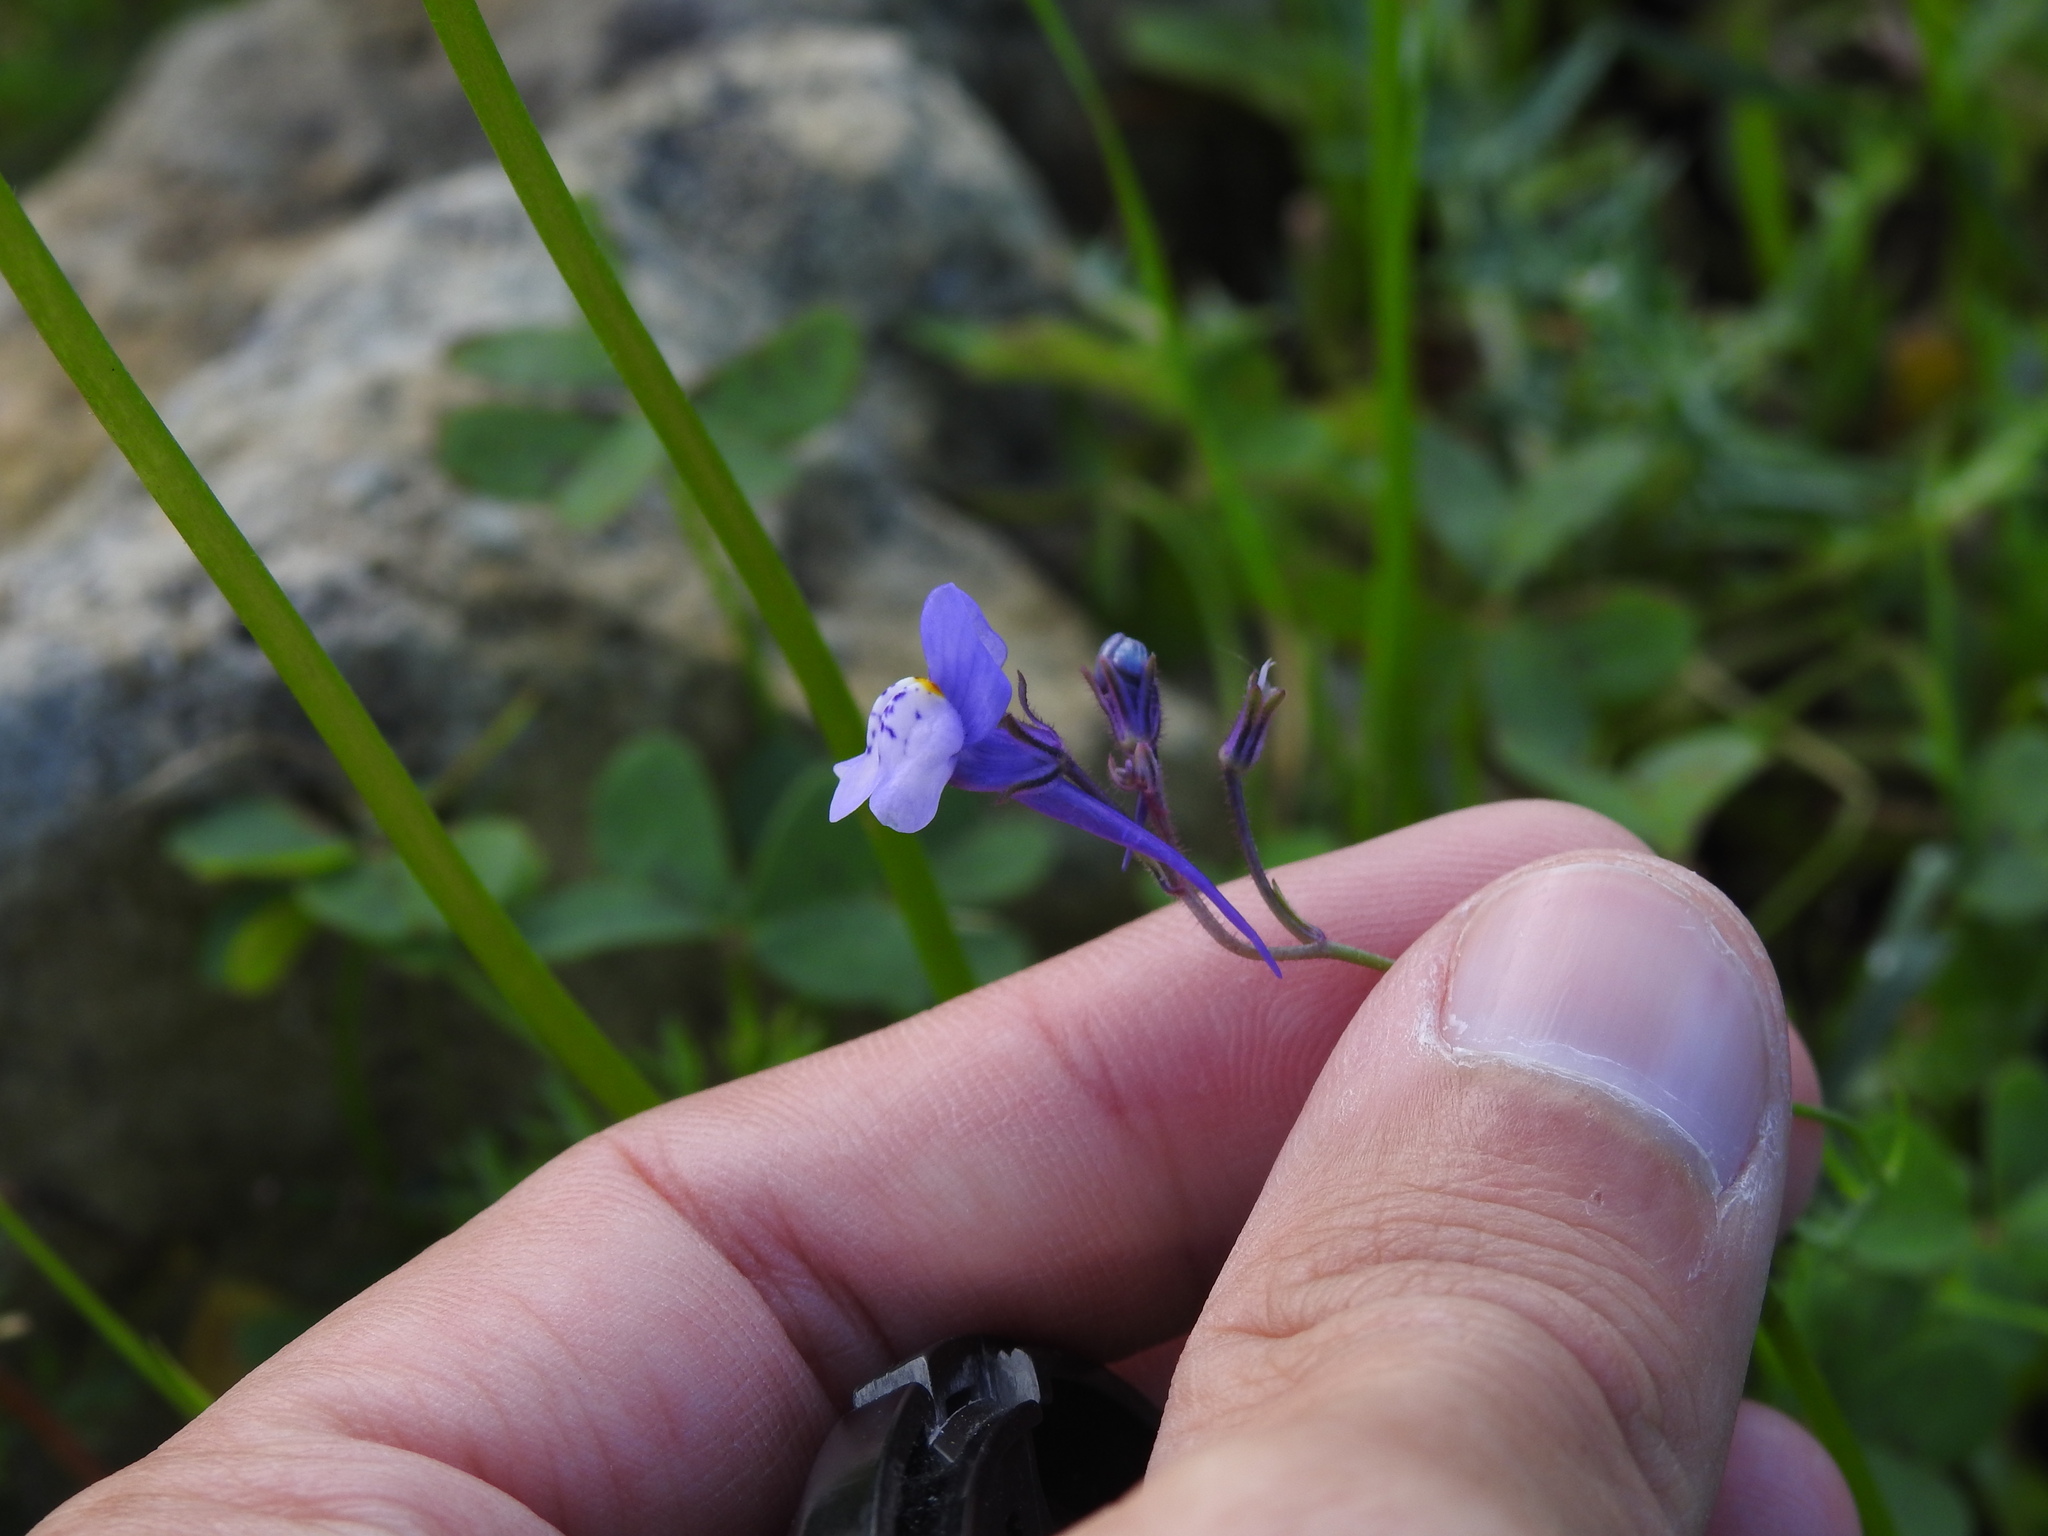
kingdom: Plantae
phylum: Tracheophyta
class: Magnoliopsida
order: Lamiales
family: Plantaginaceae
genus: Linaria
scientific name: Linaria algarviana
